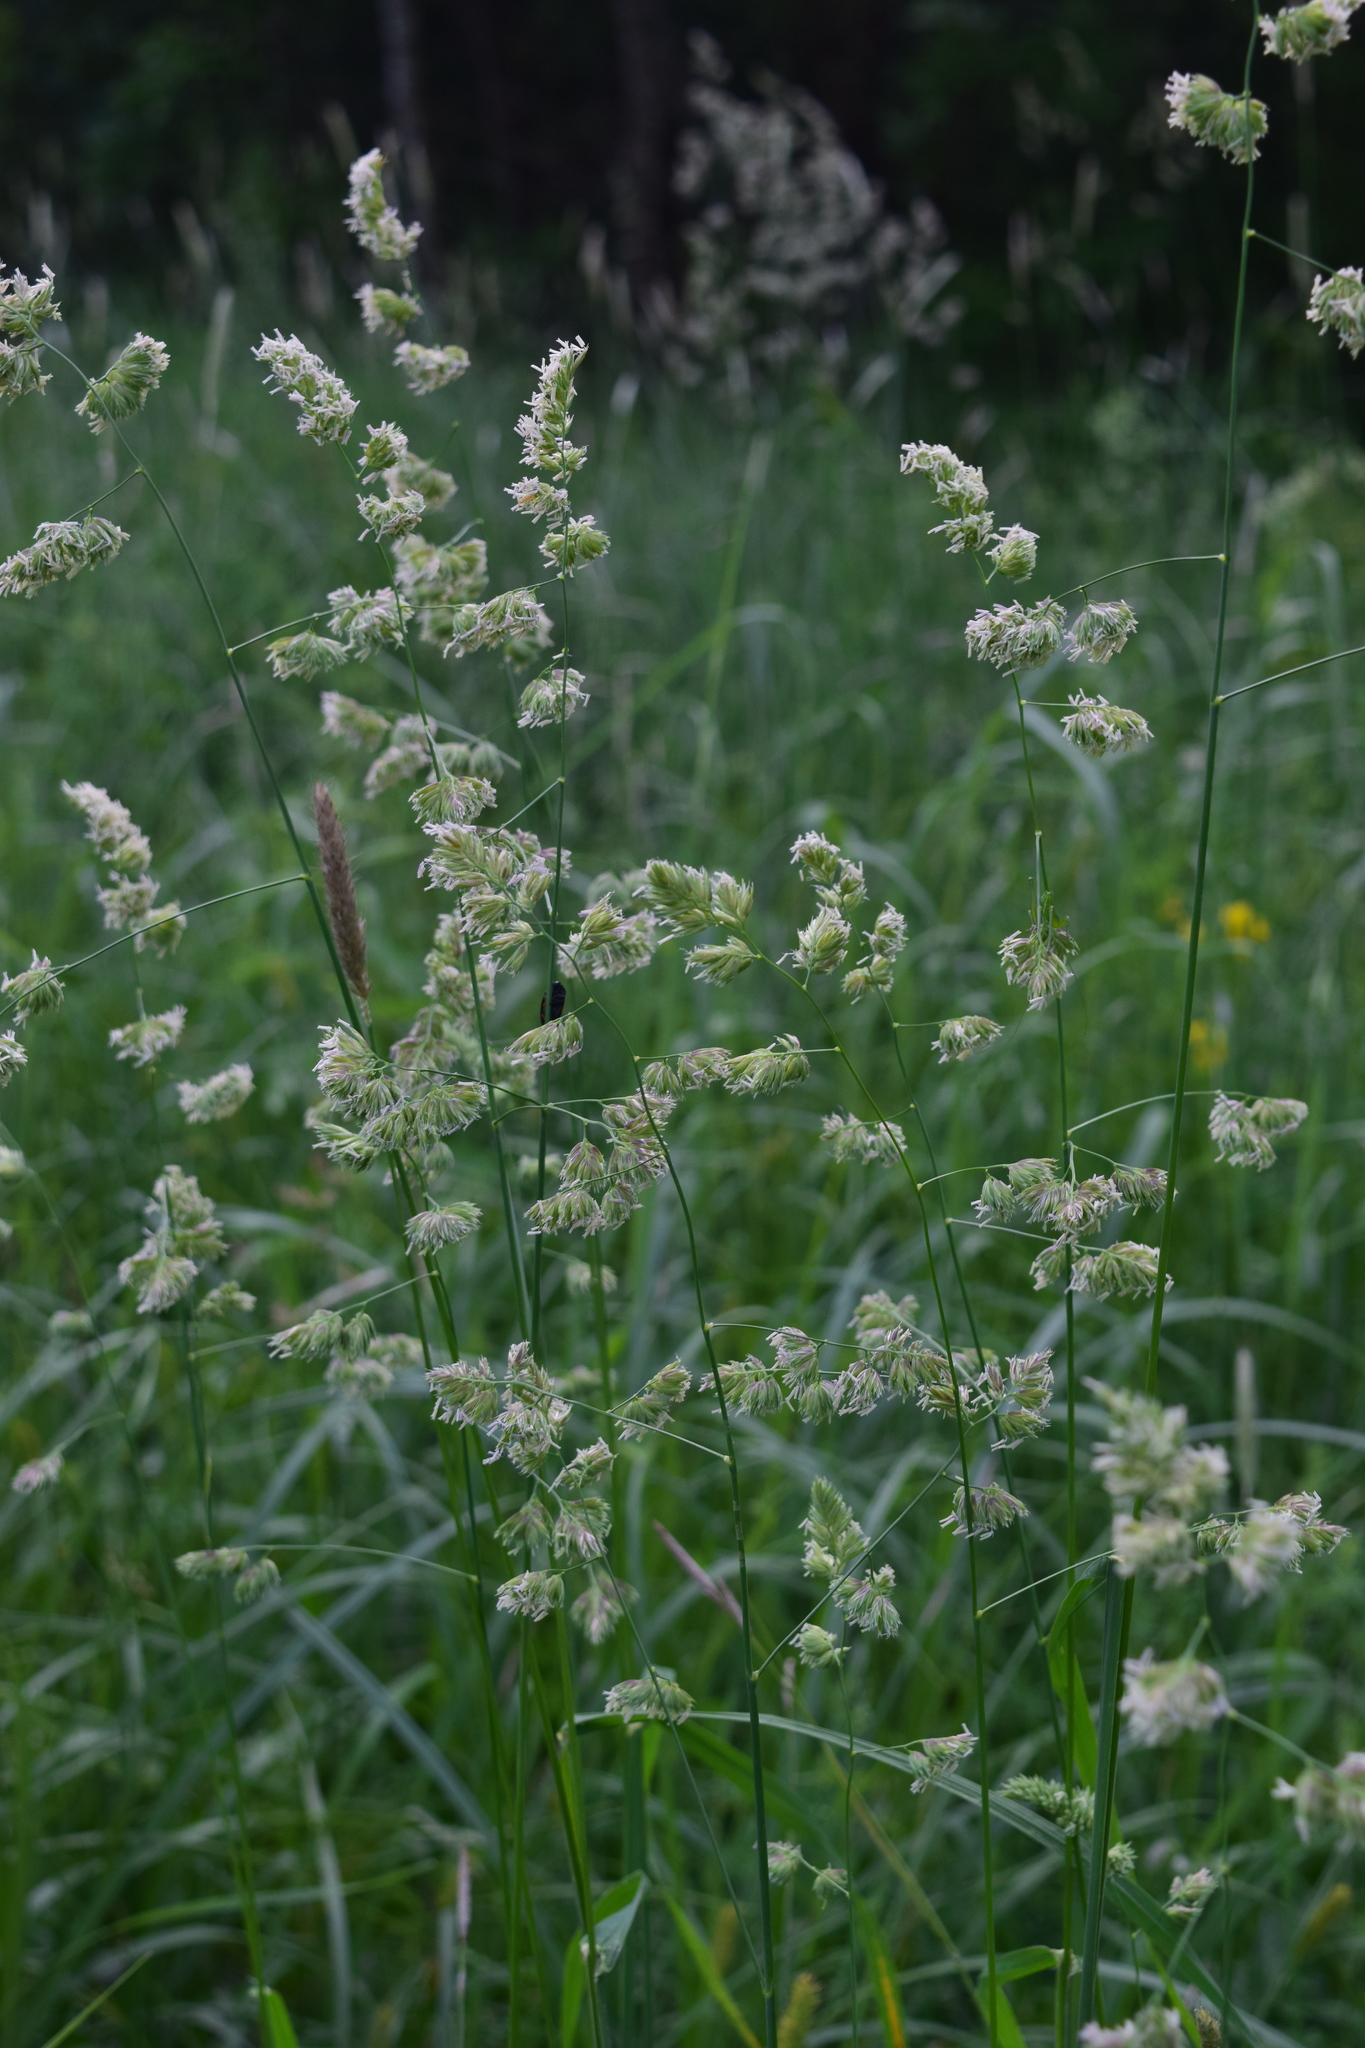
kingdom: Plantae
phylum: Tracheophyta
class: Liliopsida
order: Poales
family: Poaceae
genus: Dactylis
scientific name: Dactylis glomerata
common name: Orchardgrass
